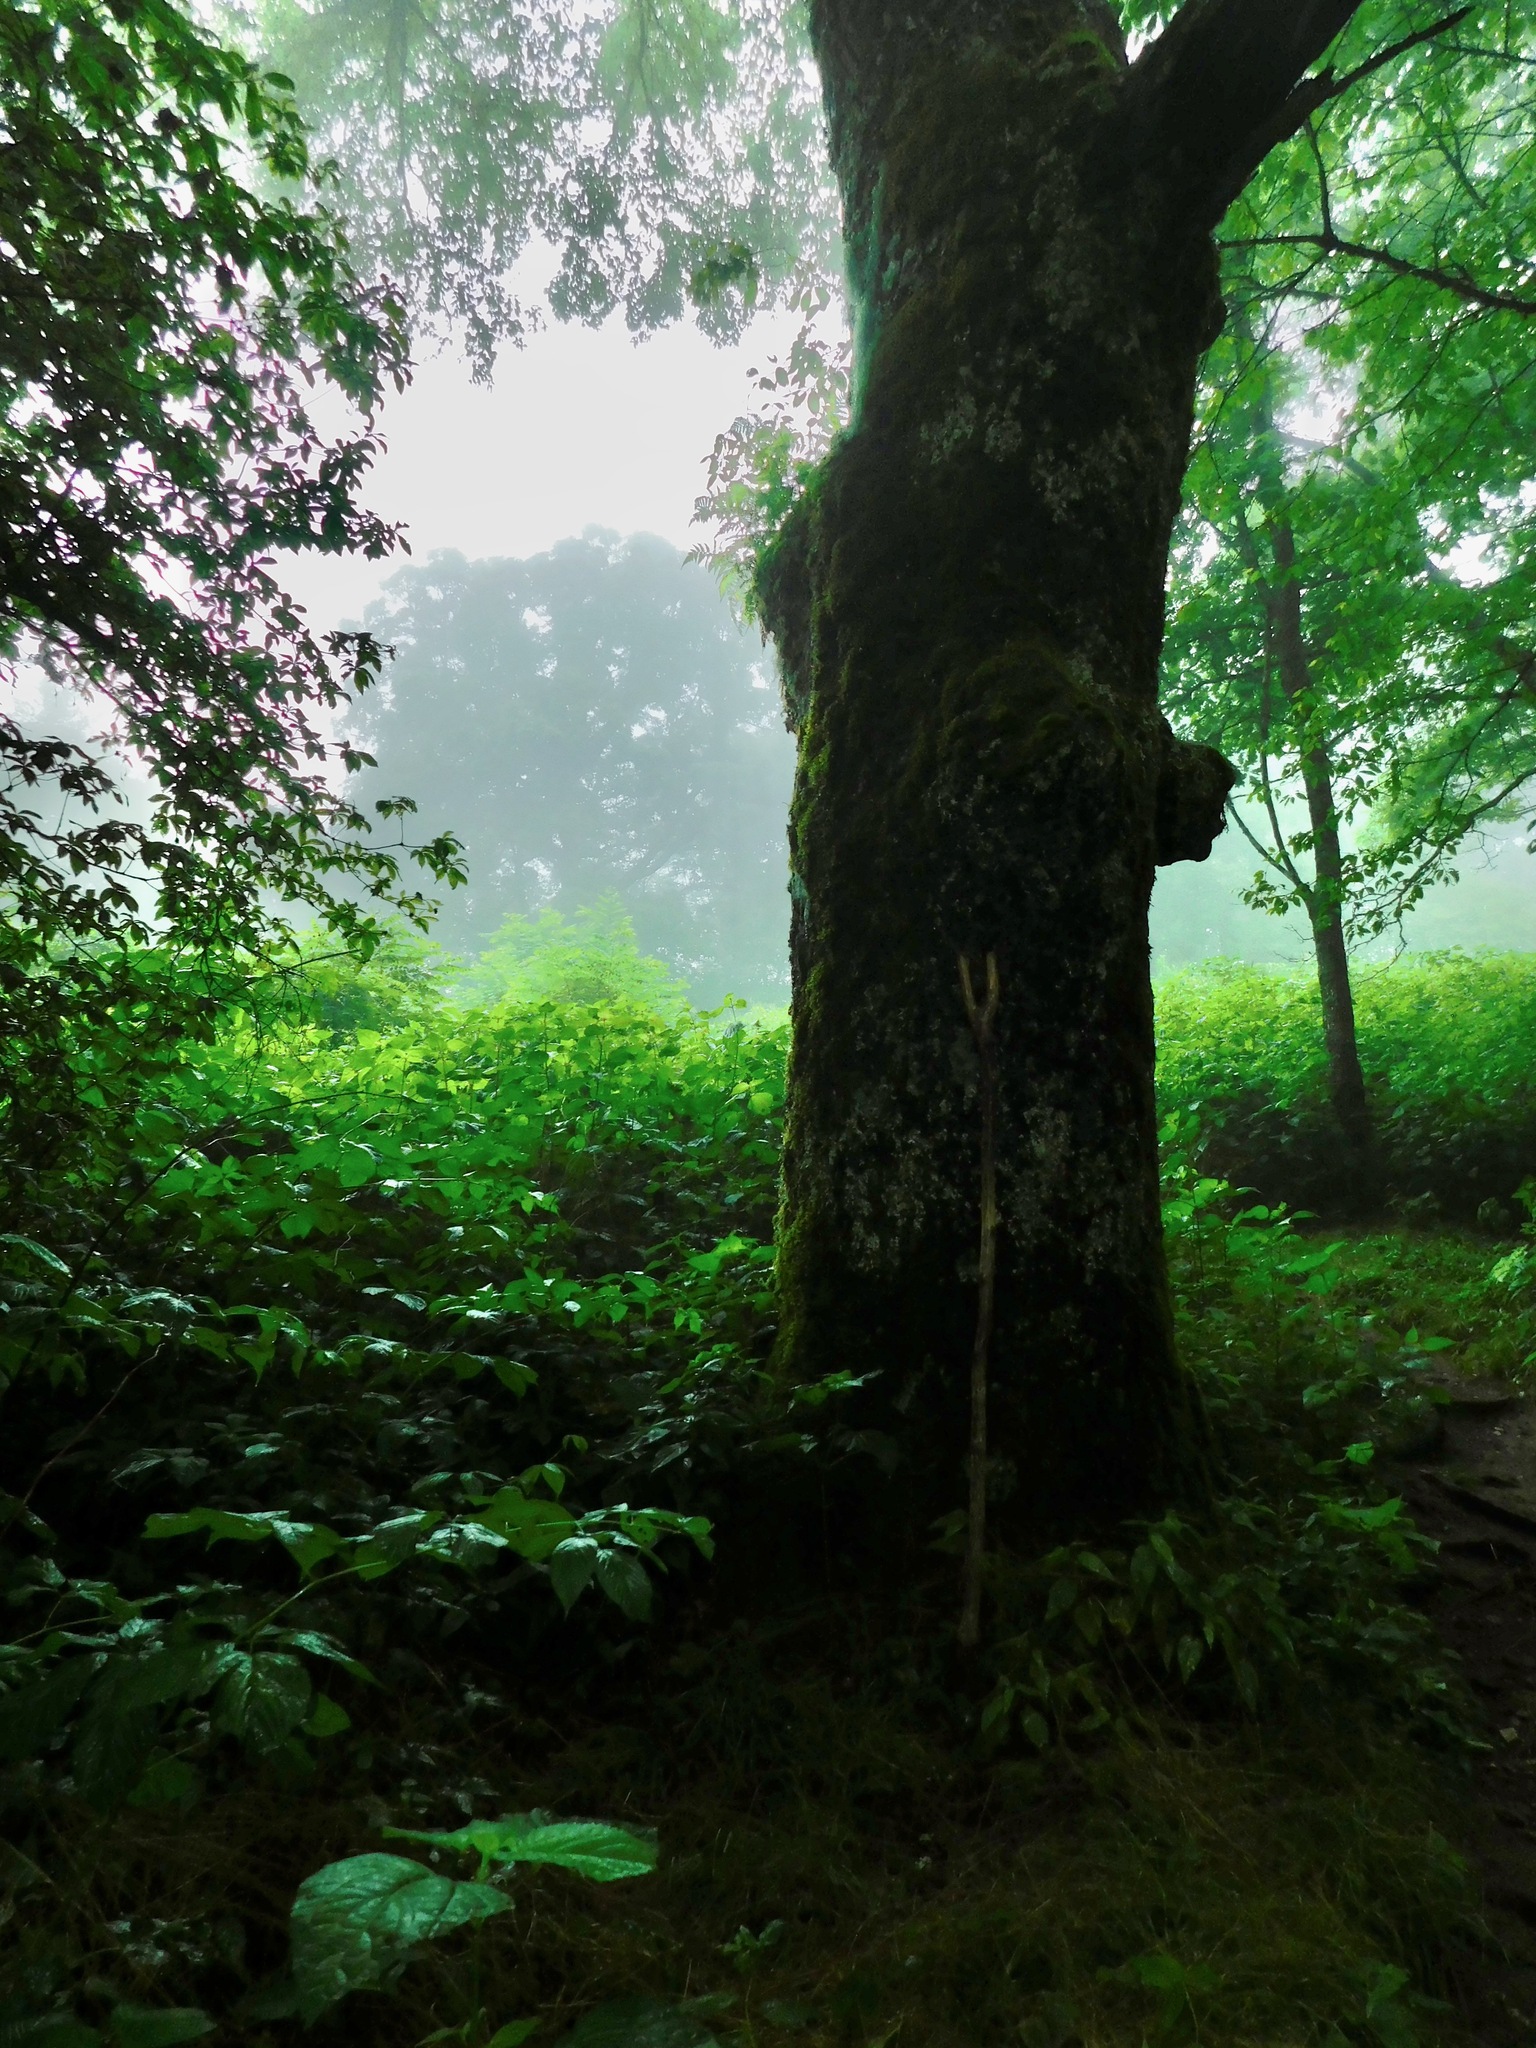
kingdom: Plantae
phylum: Tracheophyta
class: Magnoliopsida
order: Fagales
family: Fagaceae
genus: Quercus
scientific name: Quercus rubra
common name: Red oak
